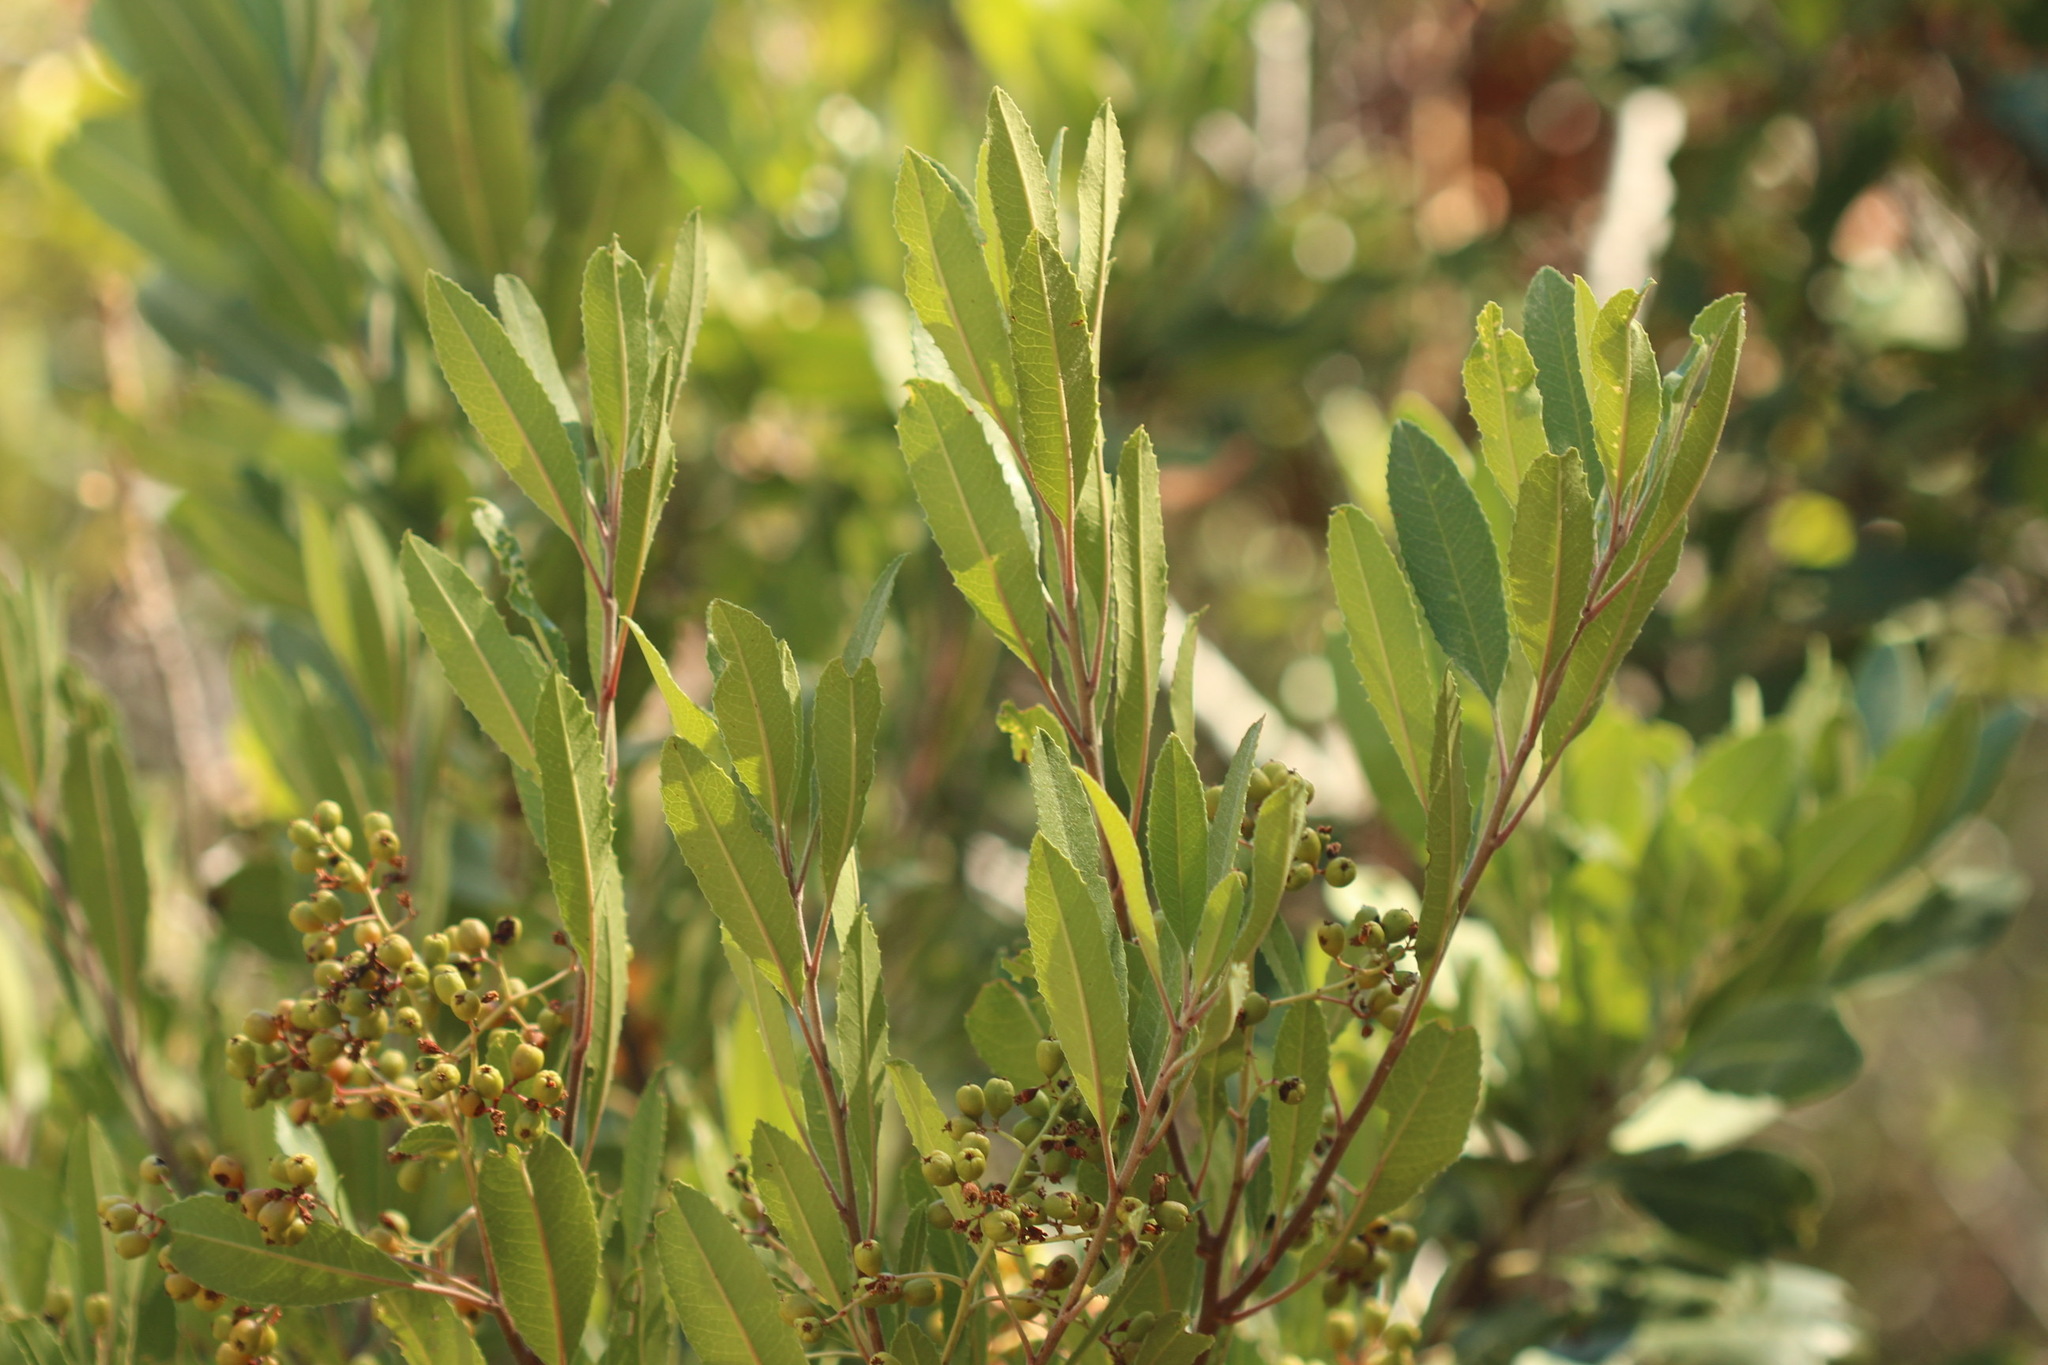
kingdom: Plantae
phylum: Tracheophyta
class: Magnoliopsida
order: Rosales
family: Rosaceae
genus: Heteromeles
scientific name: Heteromeles arbutifolia
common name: California-holly
